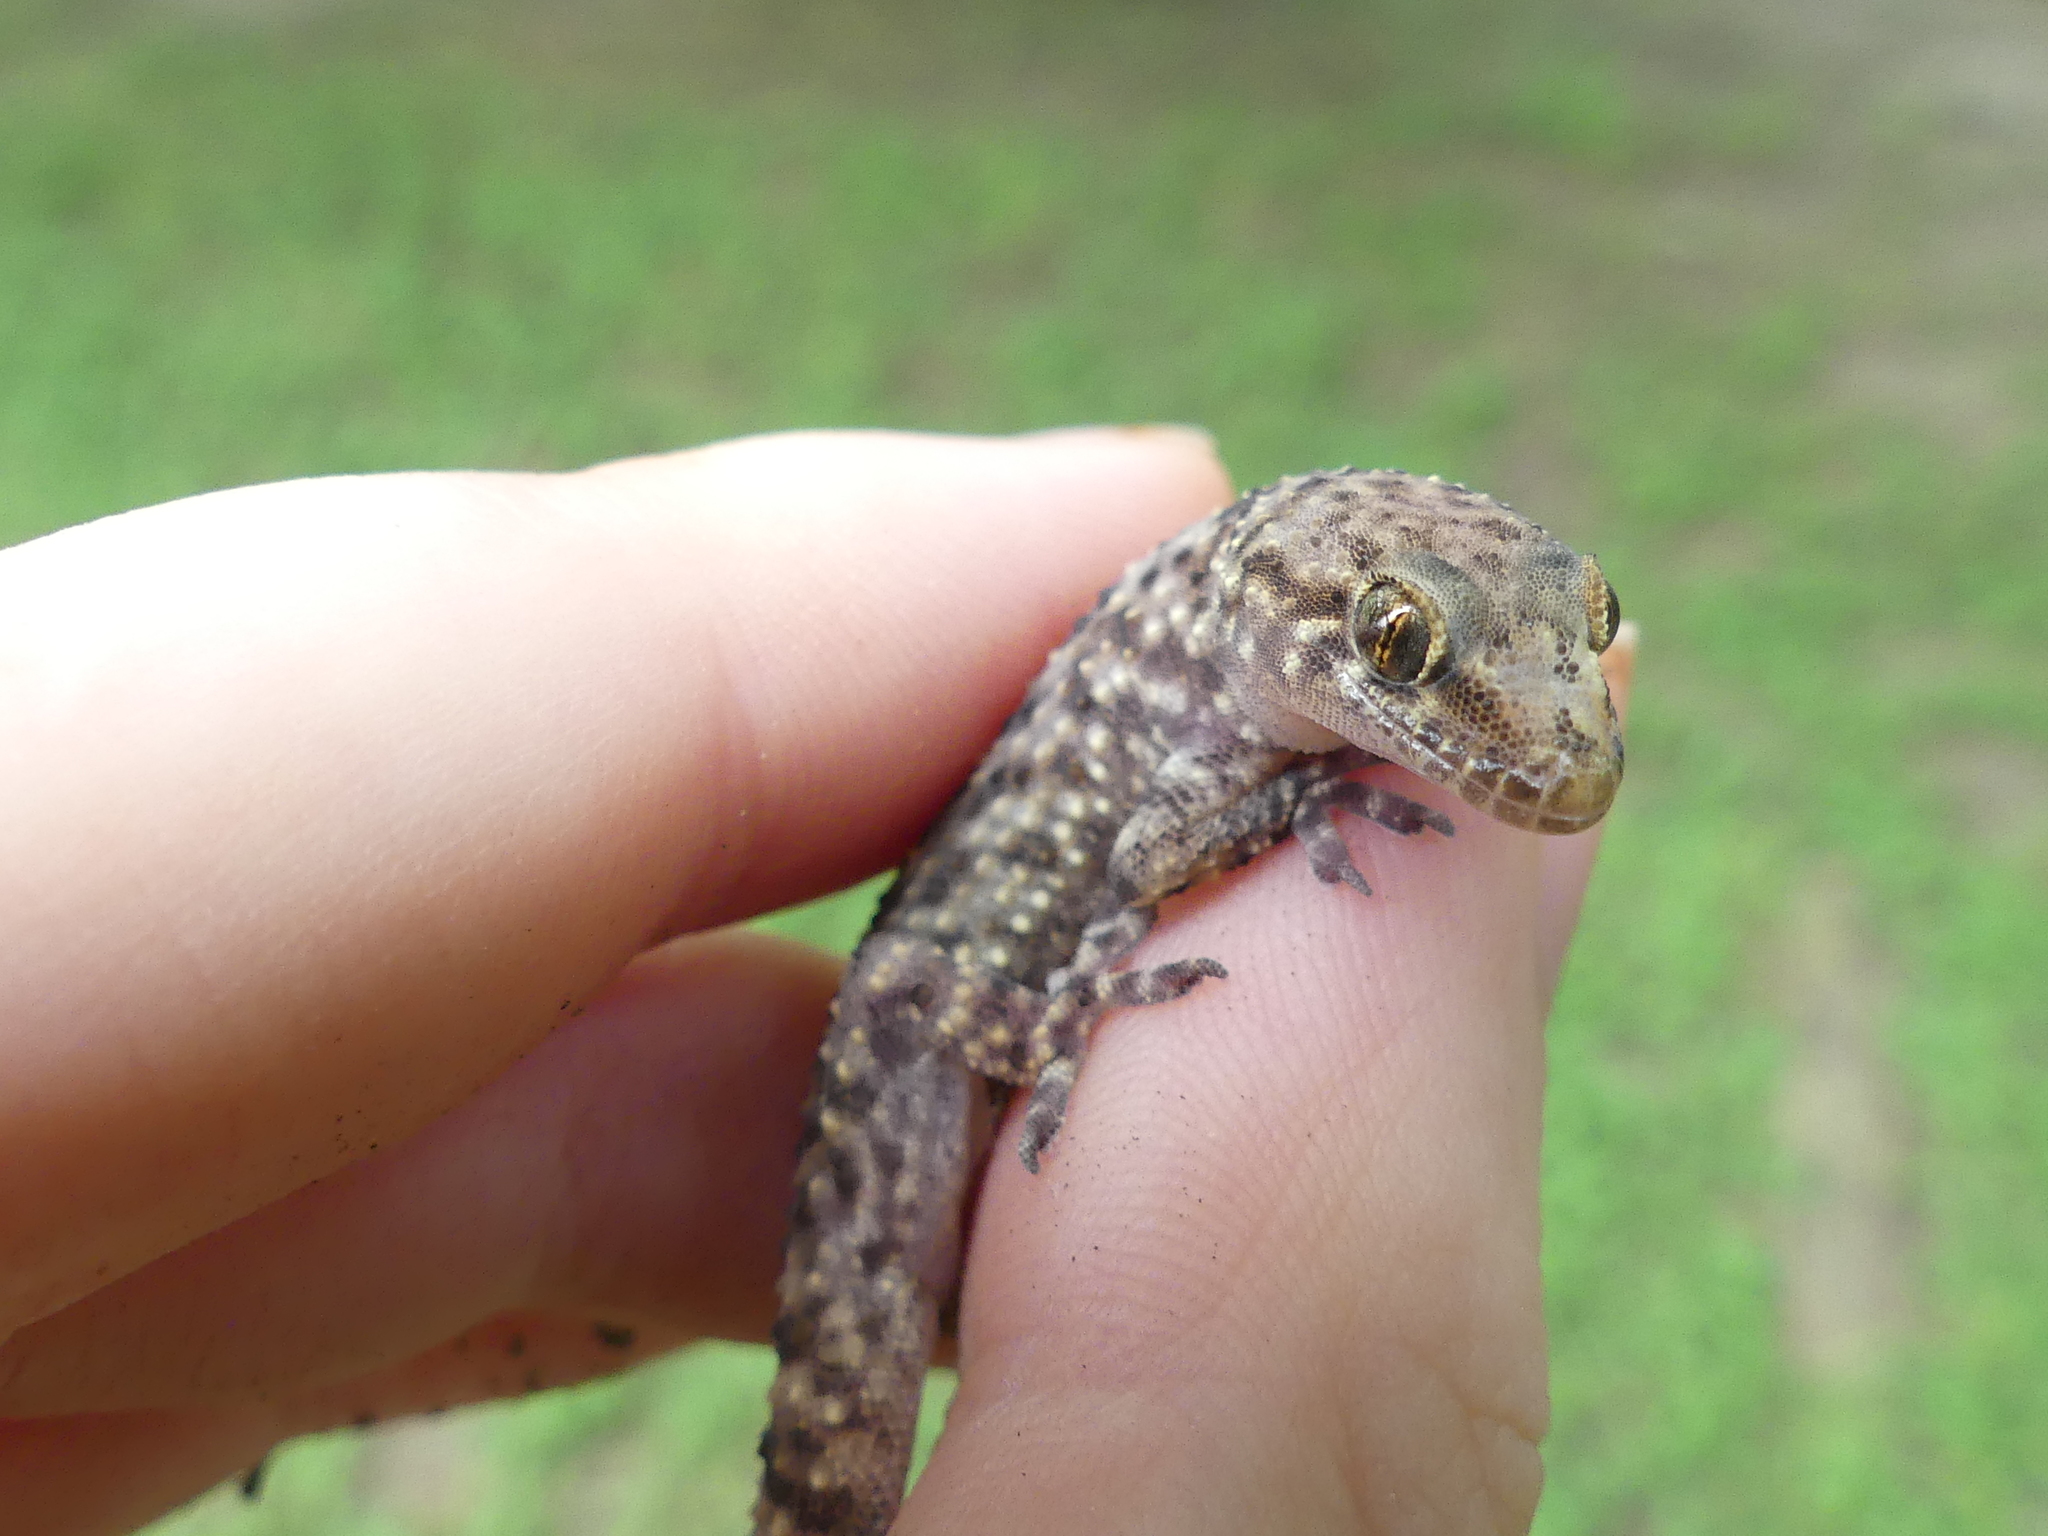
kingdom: Animalia
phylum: Chordata
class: Squamata
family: Gekkonidae
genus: Hemidactylus
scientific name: Hemidactylus turcicus
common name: Turkish gecko
